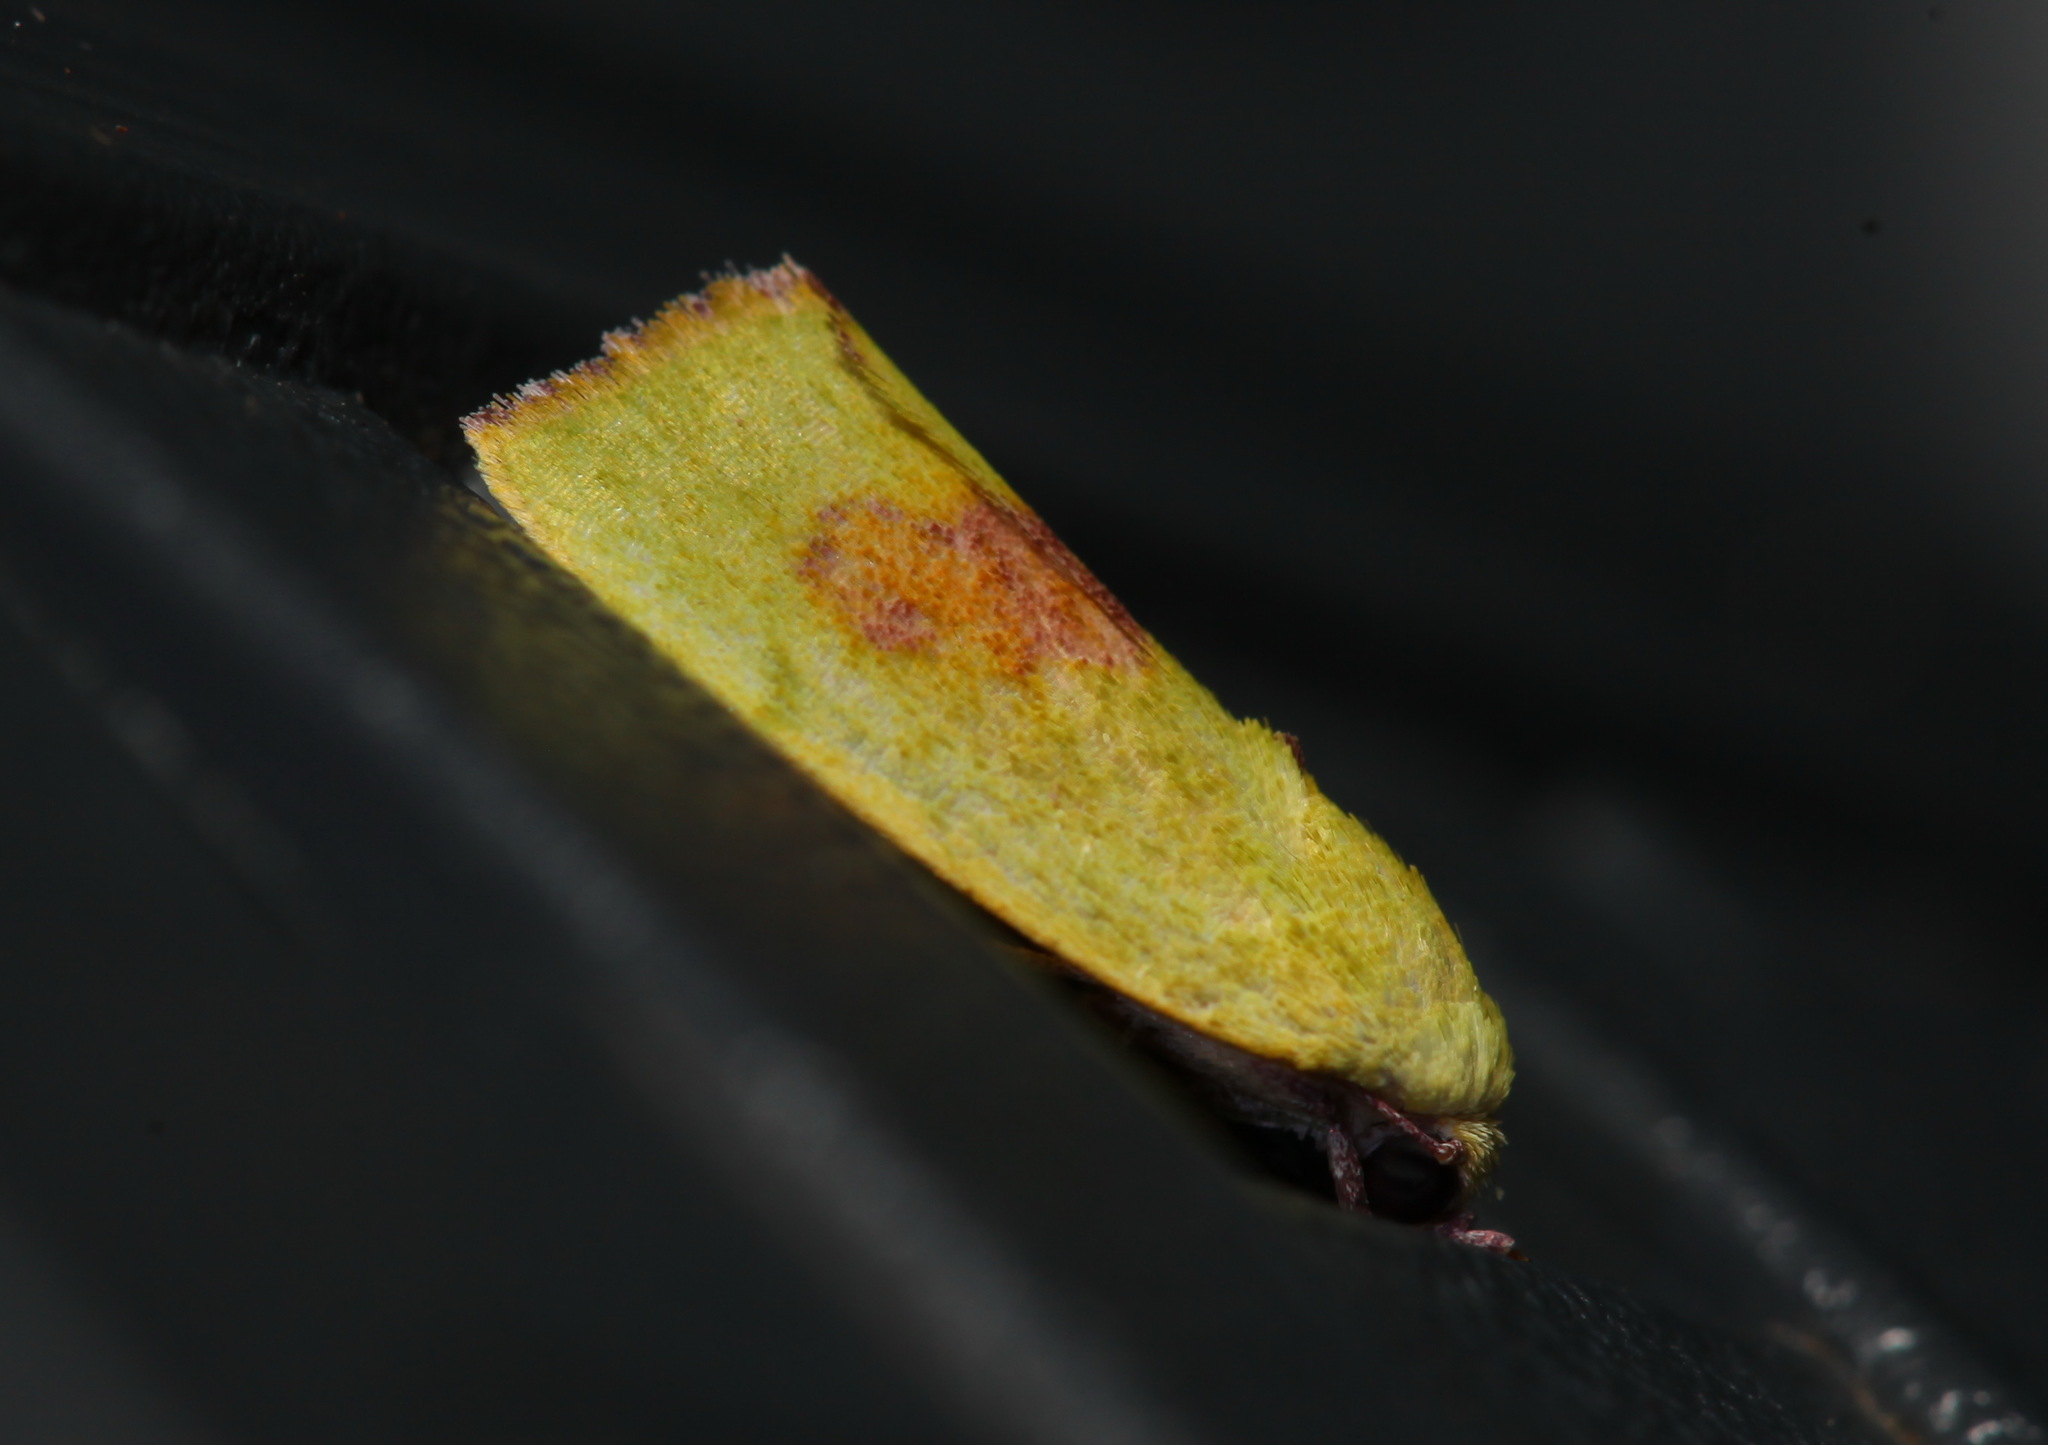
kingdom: Animalia
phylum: Arthropoda
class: Insecta
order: Lepidoptera
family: Nolidae
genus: Earias
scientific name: Earias biplaga
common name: Spiny bollworm
